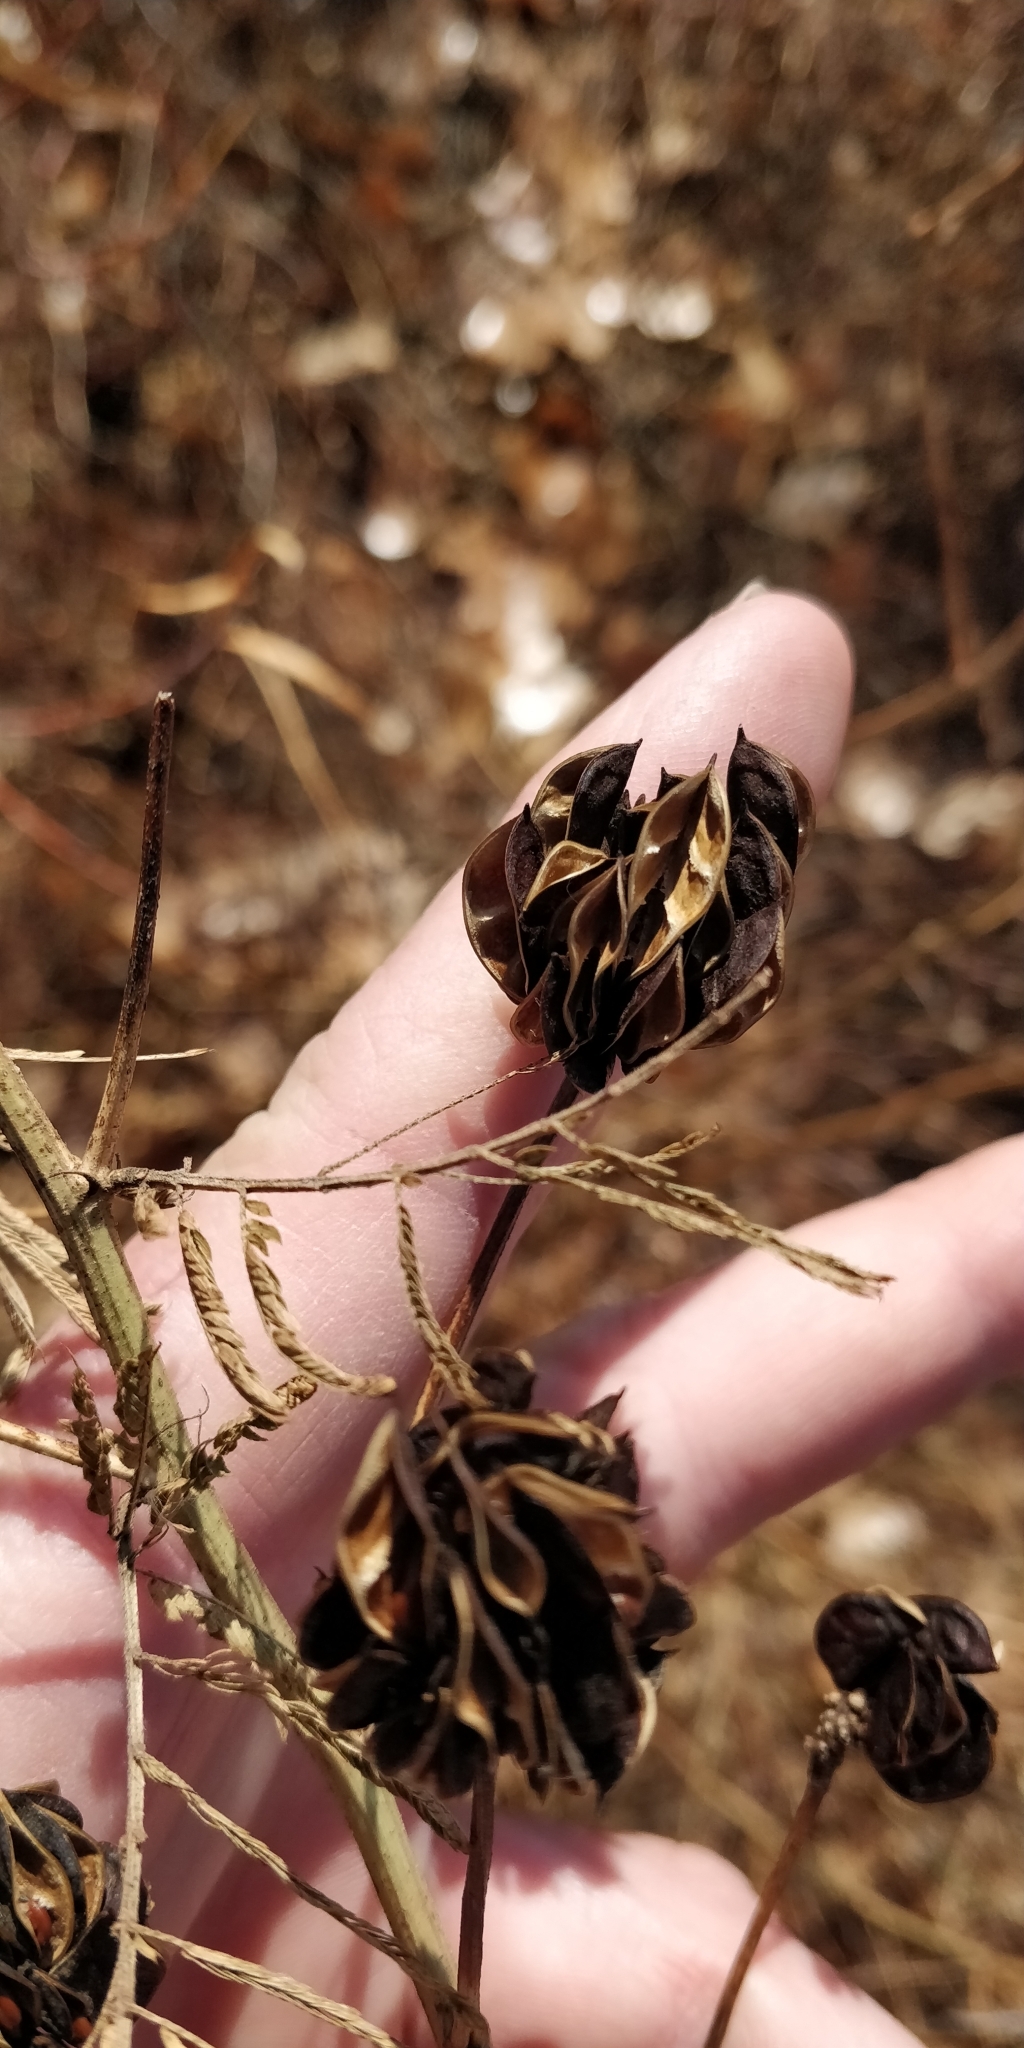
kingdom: Plantae
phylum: Tracheophyta
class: Magnoliopsida
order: Fabales
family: Fabaceae
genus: Desmanthus
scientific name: Desmanthus illinoensis
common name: Illinois bundle-flower
